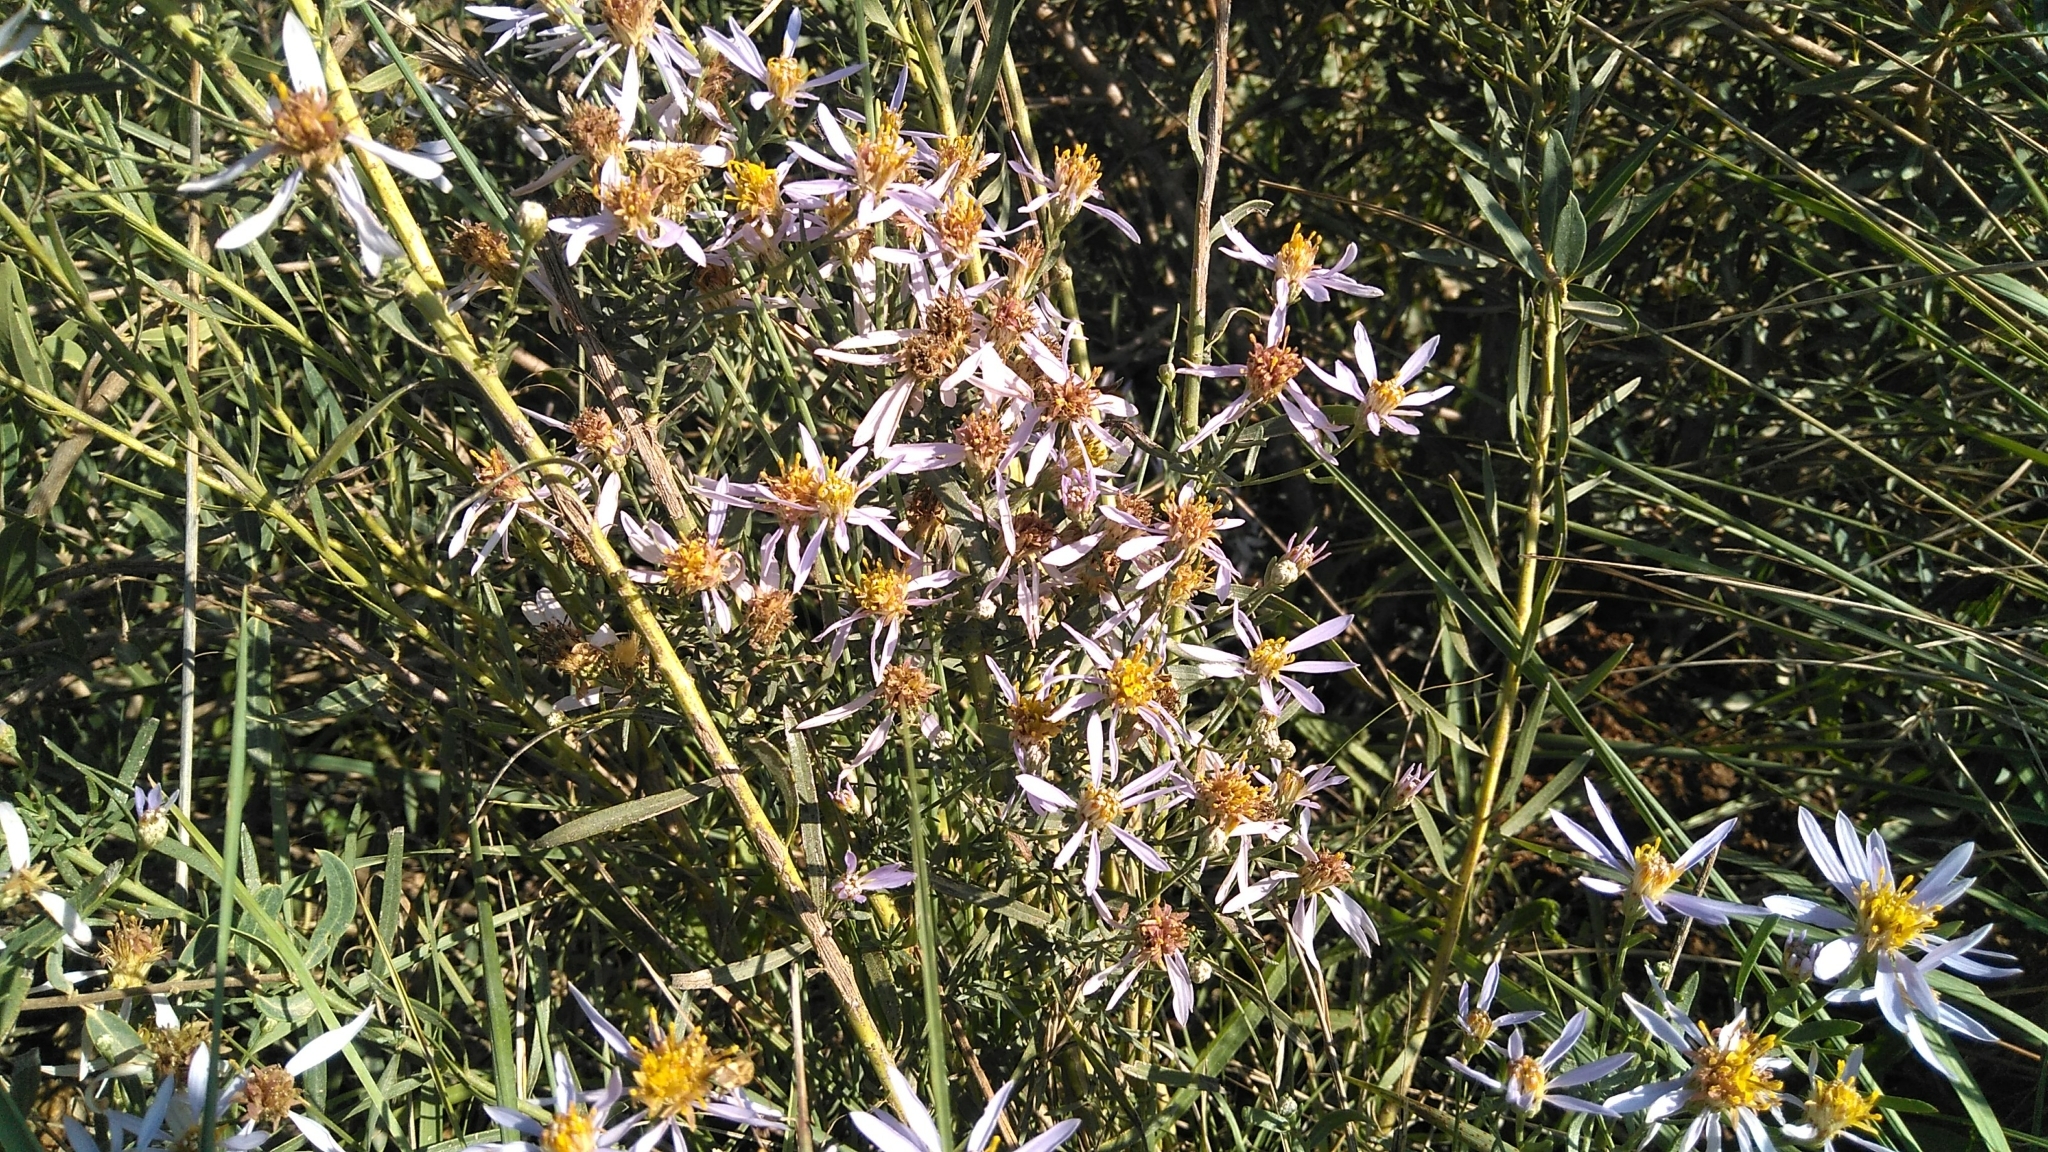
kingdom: Plantae
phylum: Tracheophyta
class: Magnoliopsida
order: Asterales
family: Asteraceae
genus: Galatella
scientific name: Galatella sedifolia
